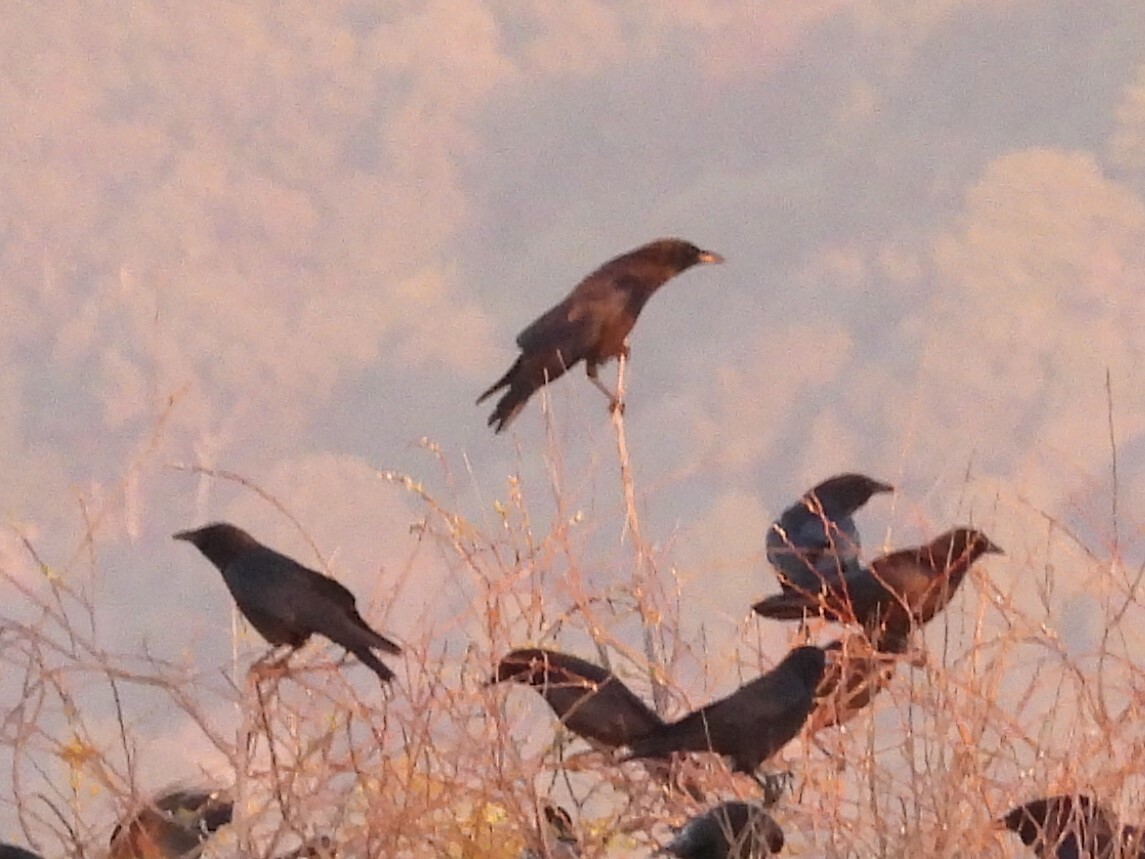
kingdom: Animalia
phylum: Chordata
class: Aves
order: Passeriformes
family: Corvidae
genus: Corvus
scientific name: Corvus brachyrhynchos
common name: American crow
